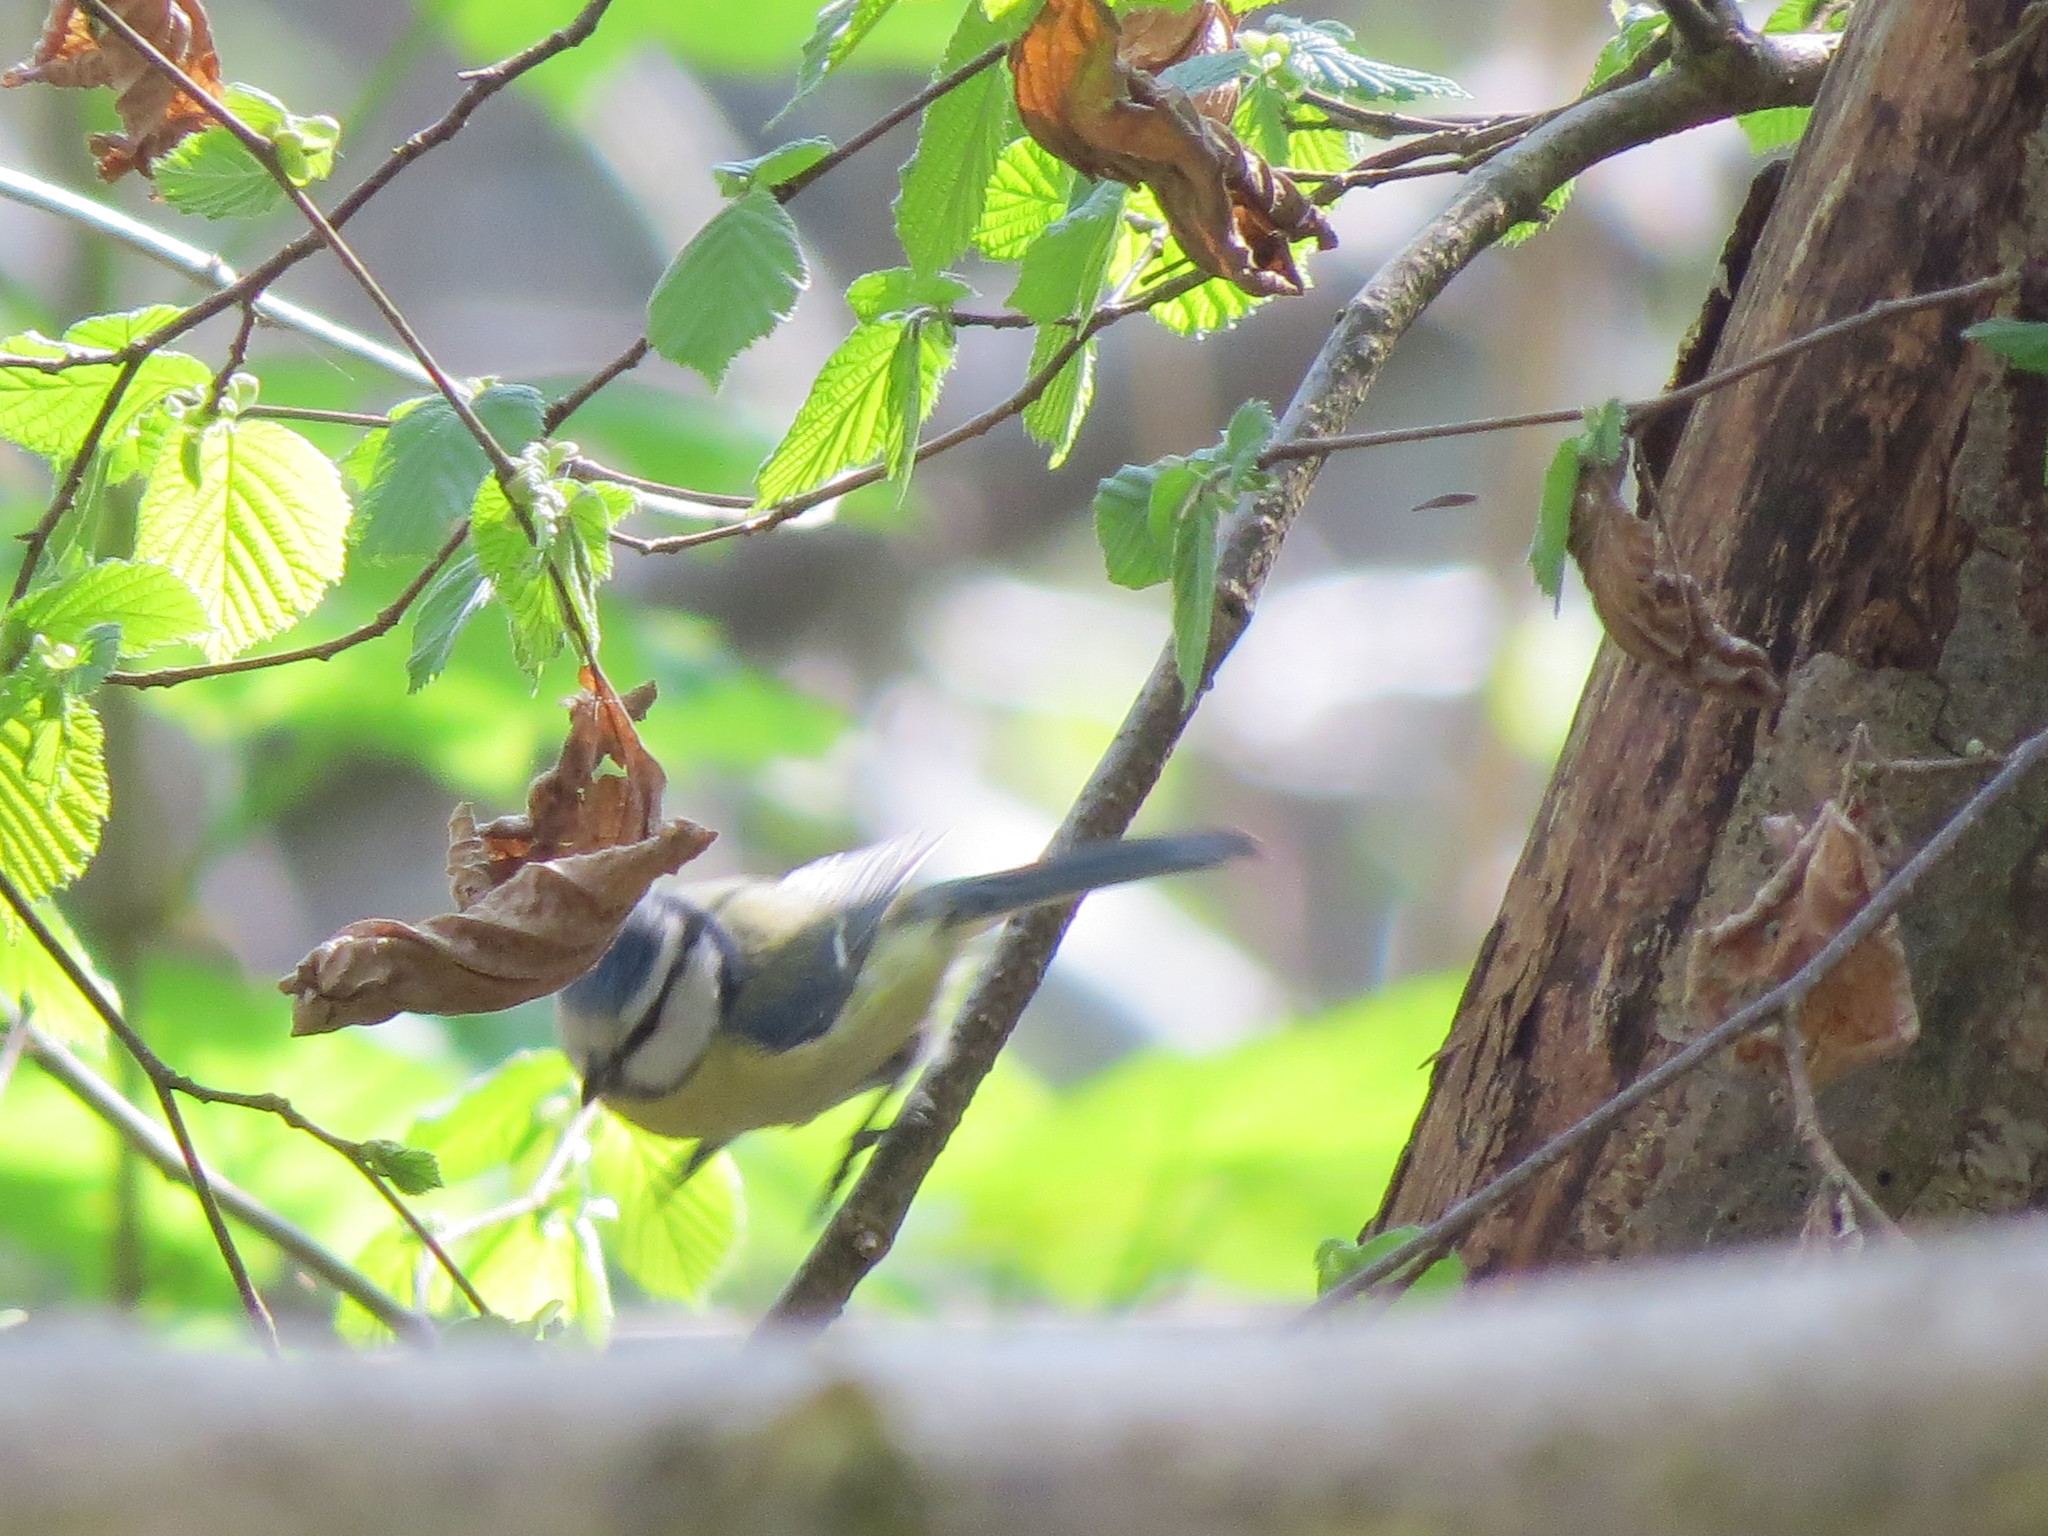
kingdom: Animalia
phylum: Chordata
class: Aves
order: Passeriformes
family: Paridae
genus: Cyanistes
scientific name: Cyanistes caeruleus
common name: Eurasian blue tit
